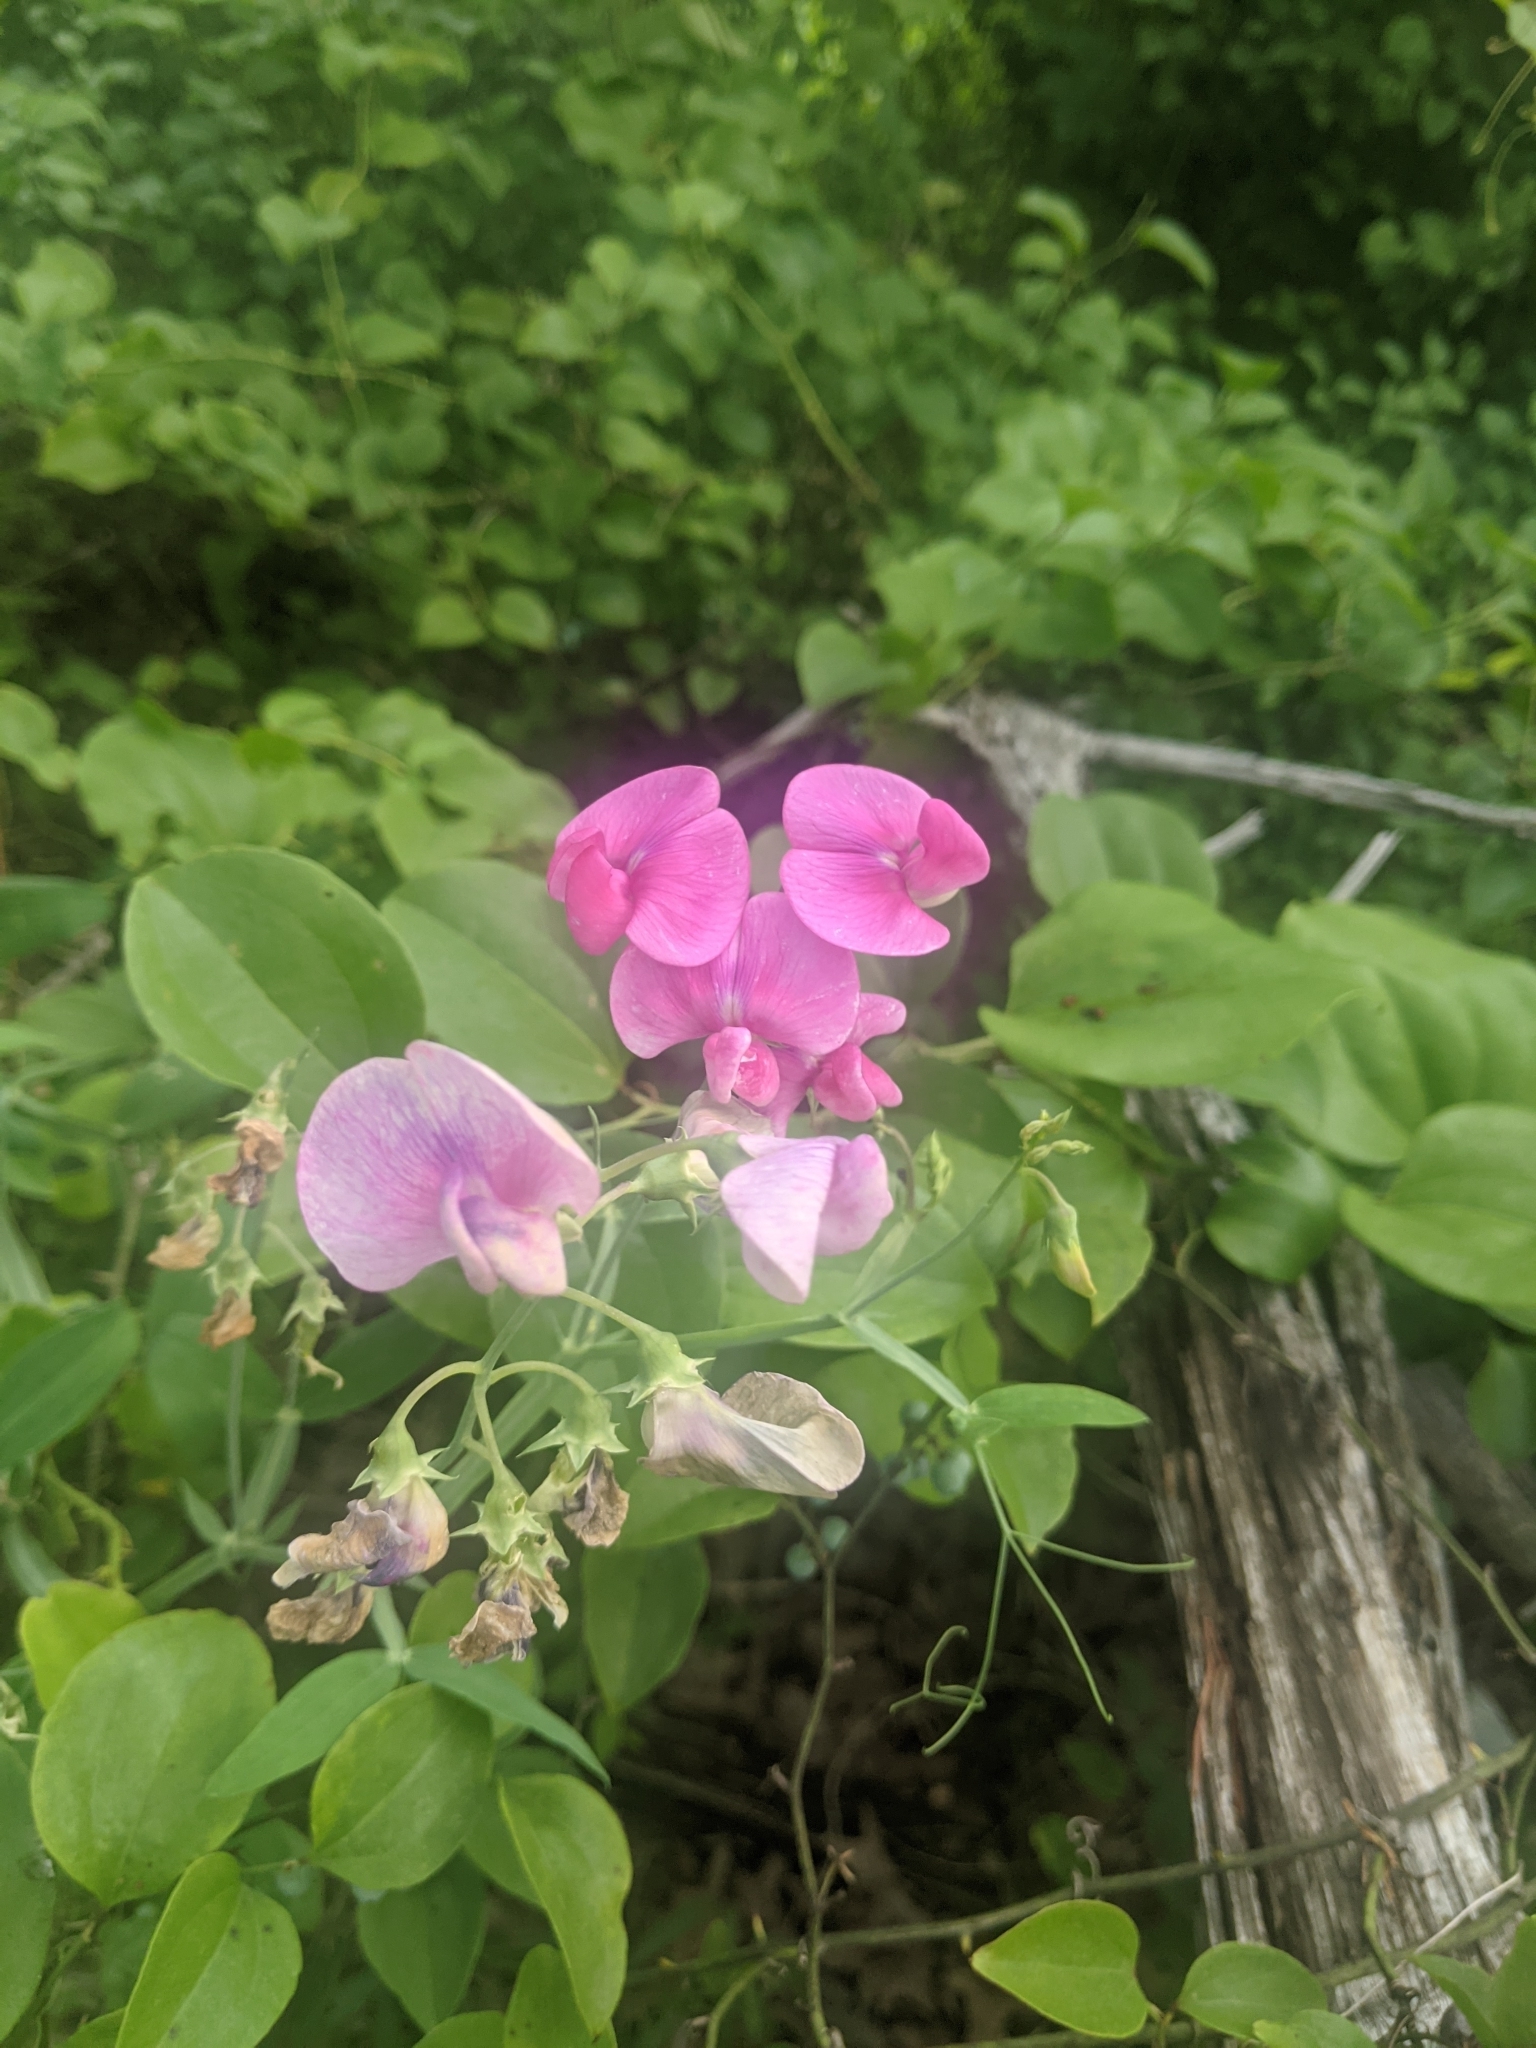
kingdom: Plantae
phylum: Tracheophyta
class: Magnoliopsida
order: Fabales
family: Fabaceae
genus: Lathyrus
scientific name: Lathyrus latifolius
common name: Perennial pea
